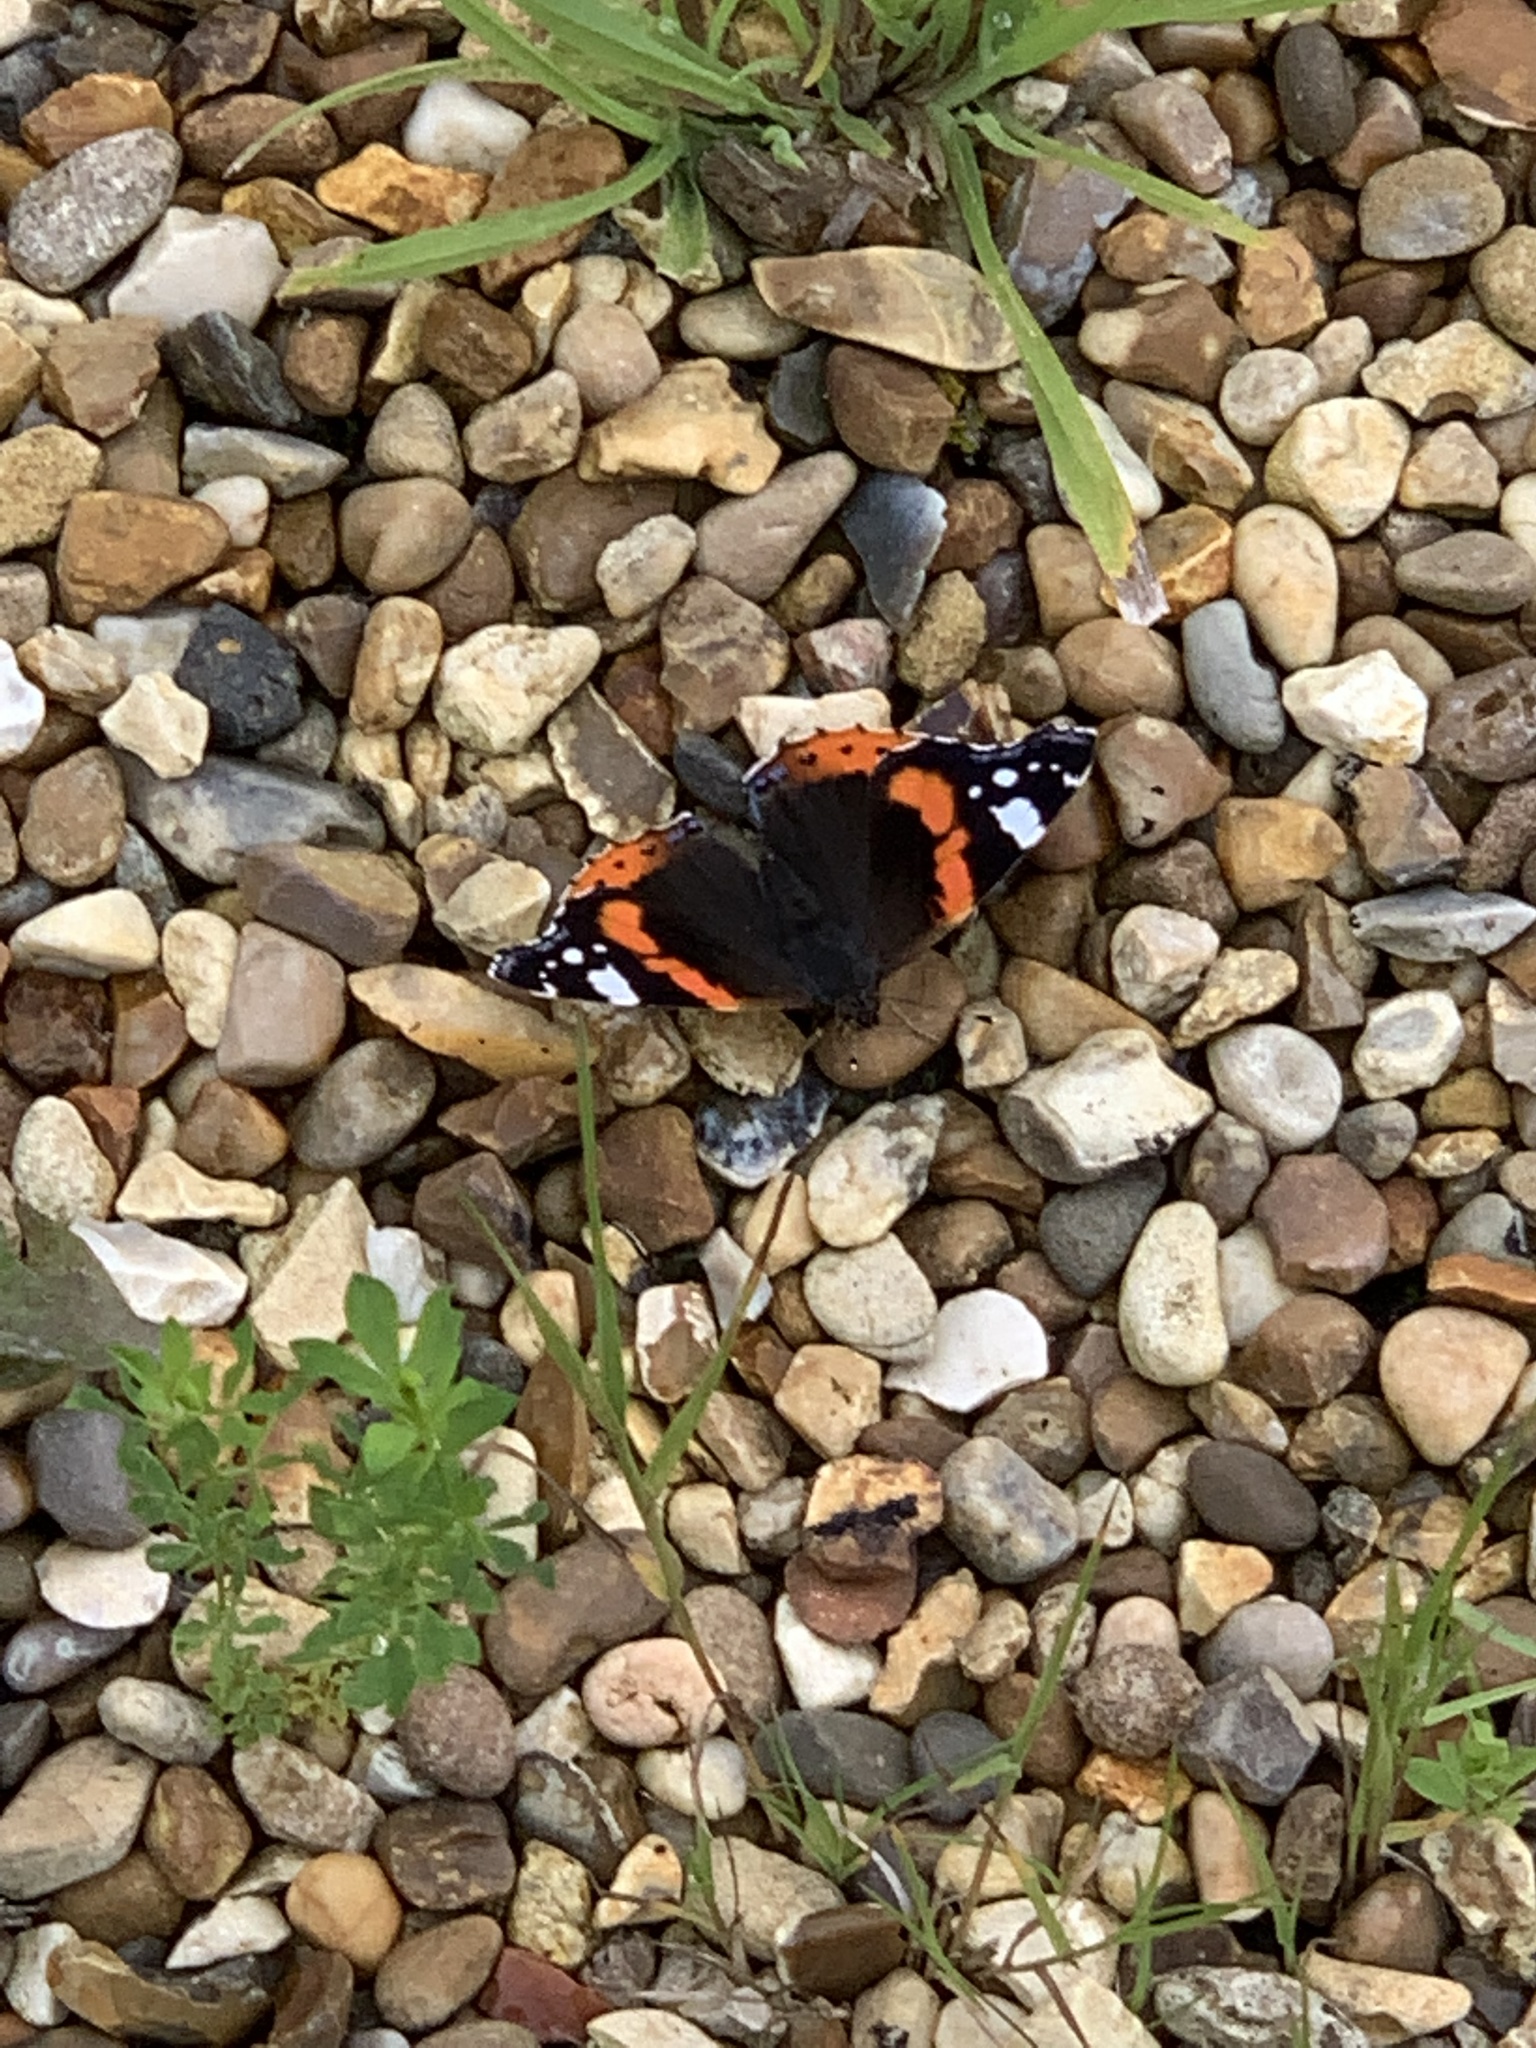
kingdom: Animalia
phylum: Arthropoda
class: Insecta
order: Lepidoptera
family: Nymphalidae
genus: Vanessa
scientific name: Vanessa atalanta
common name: Red admiral
